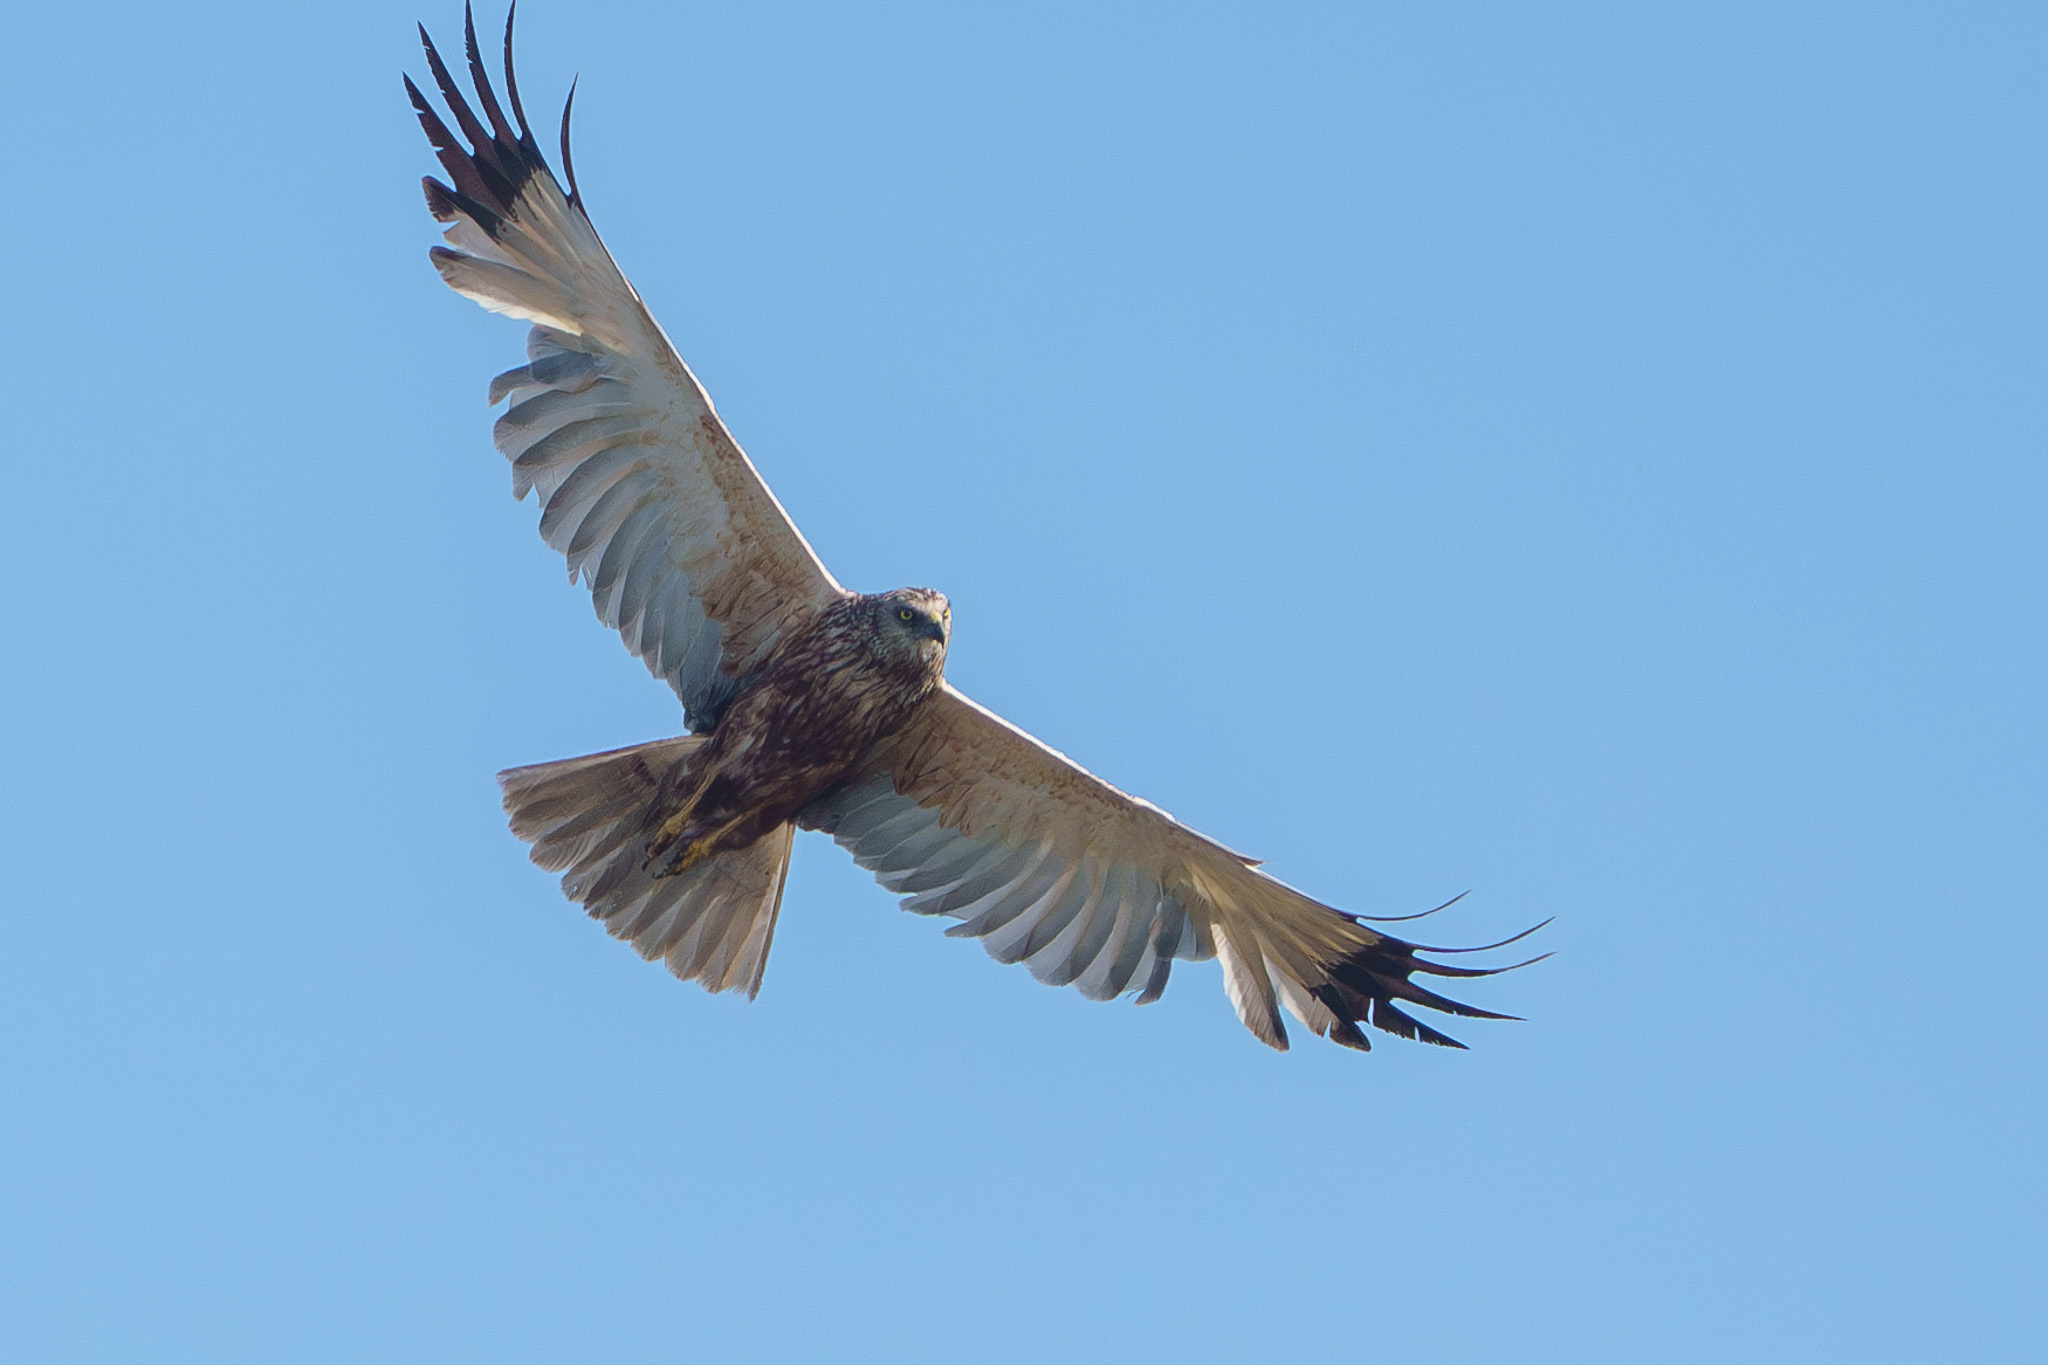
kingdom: Animalia
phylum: Chordata
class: Aves
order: Accipitriformes
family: Accipitridae
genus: Circus
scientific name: Circus aeruginosus
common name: Western marsh harrier
